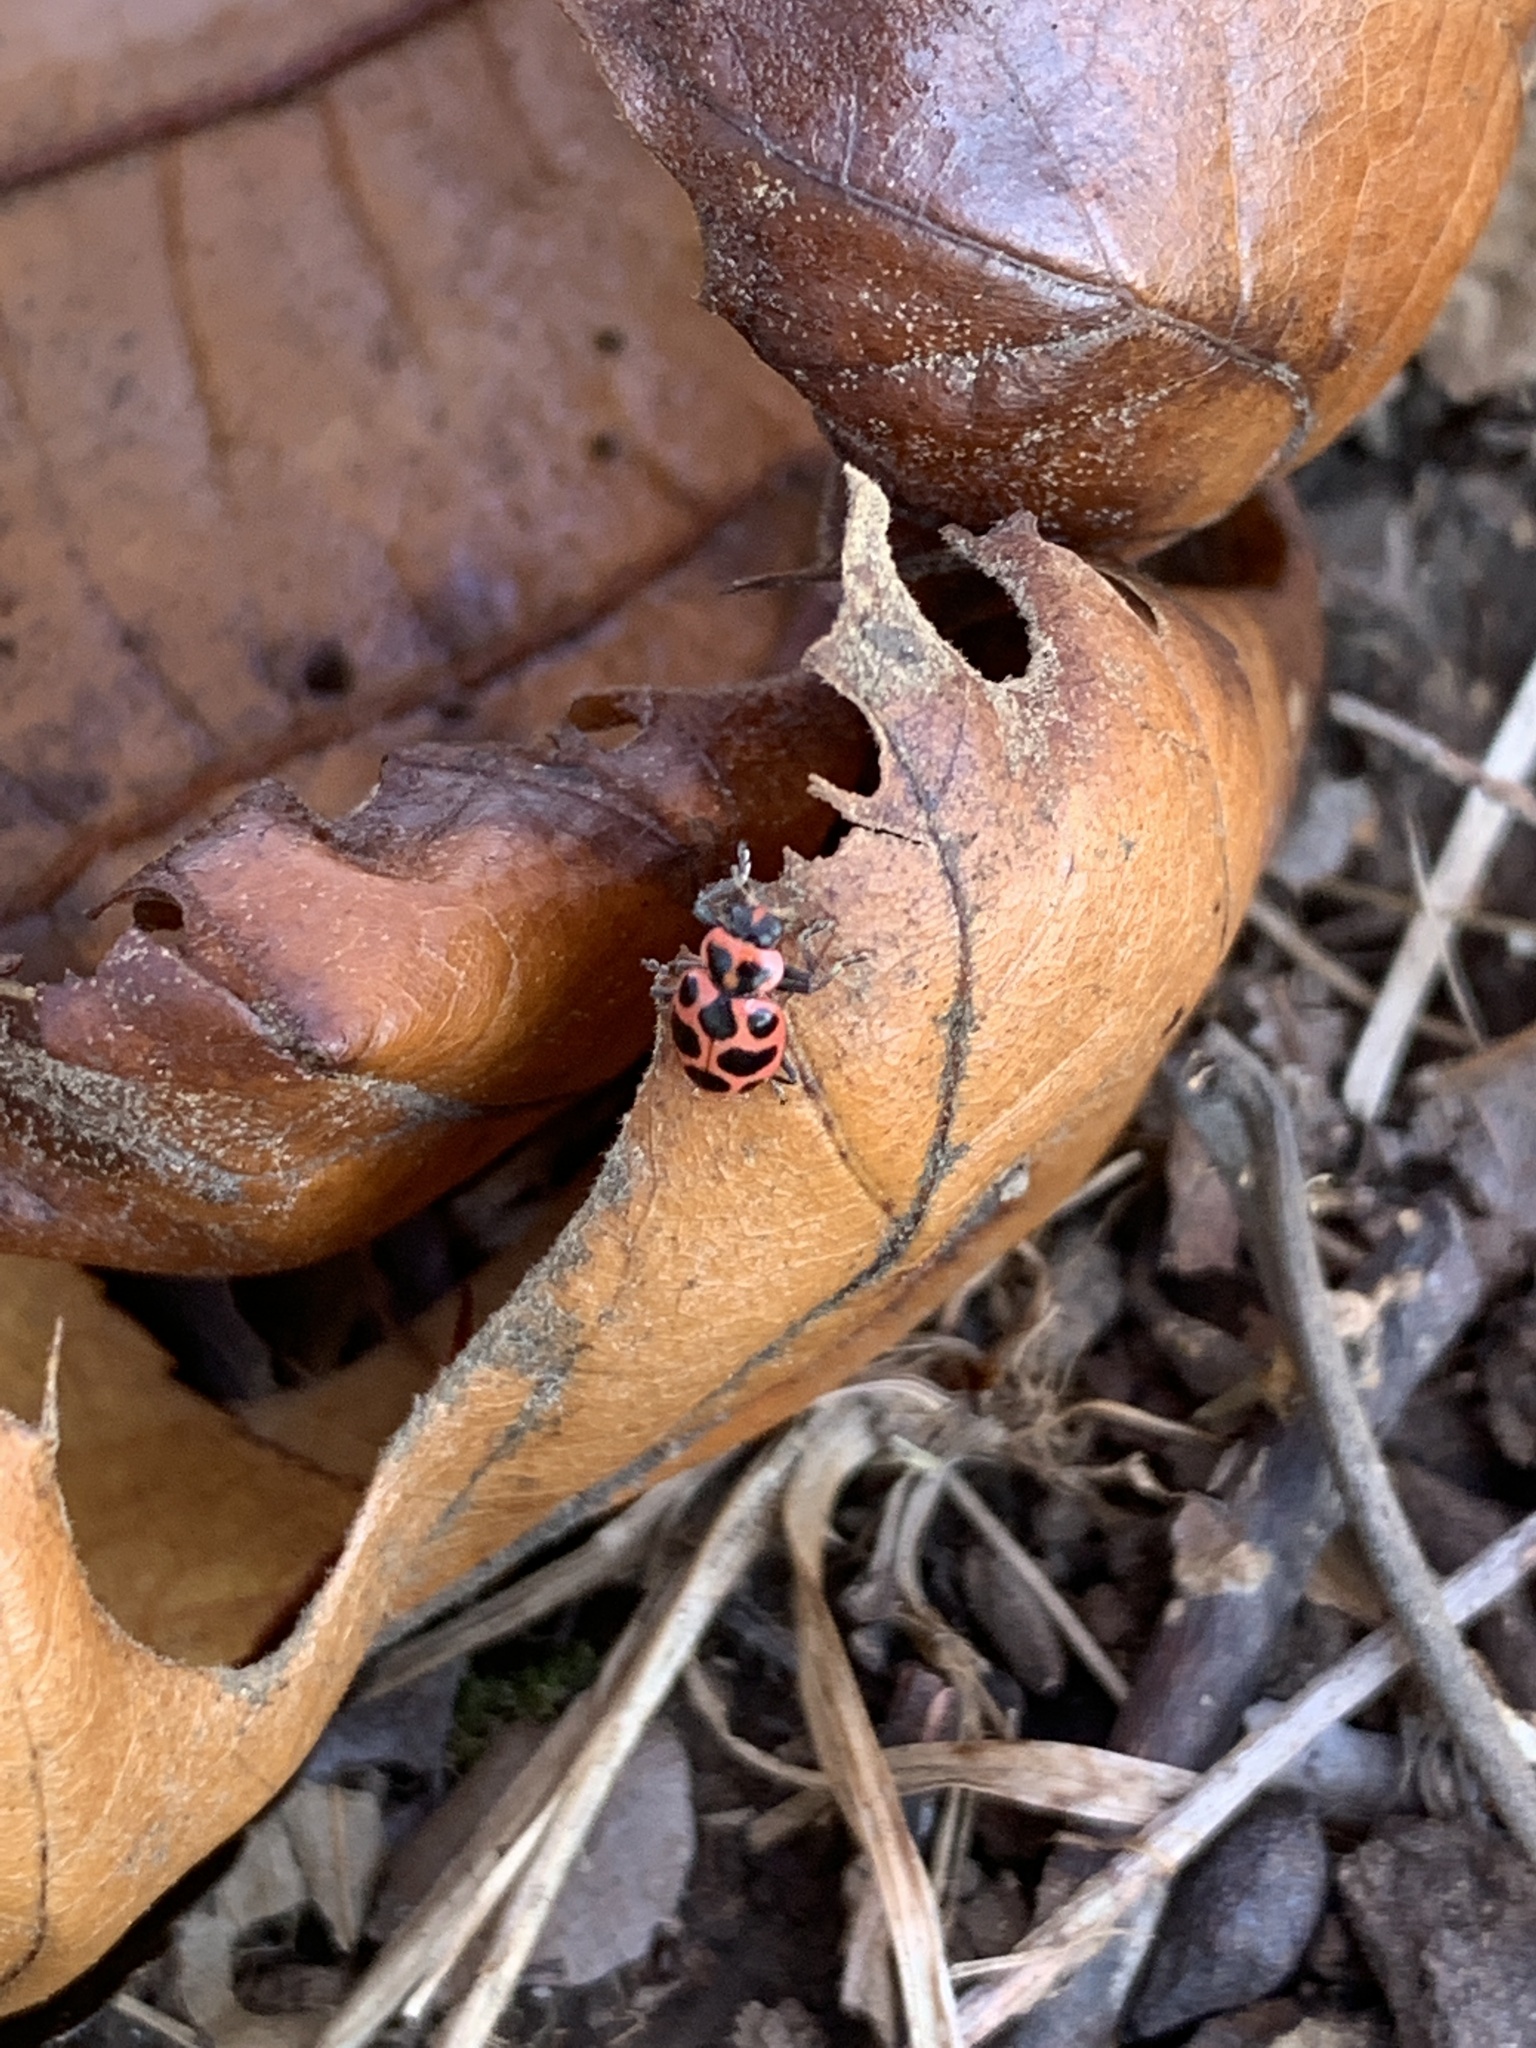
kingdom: Animalia
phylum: Arthropoda
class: Insecta
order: Coleoptera
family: Coccinellidae
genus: Coleomegilla
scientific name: Coleomegilla maculata
